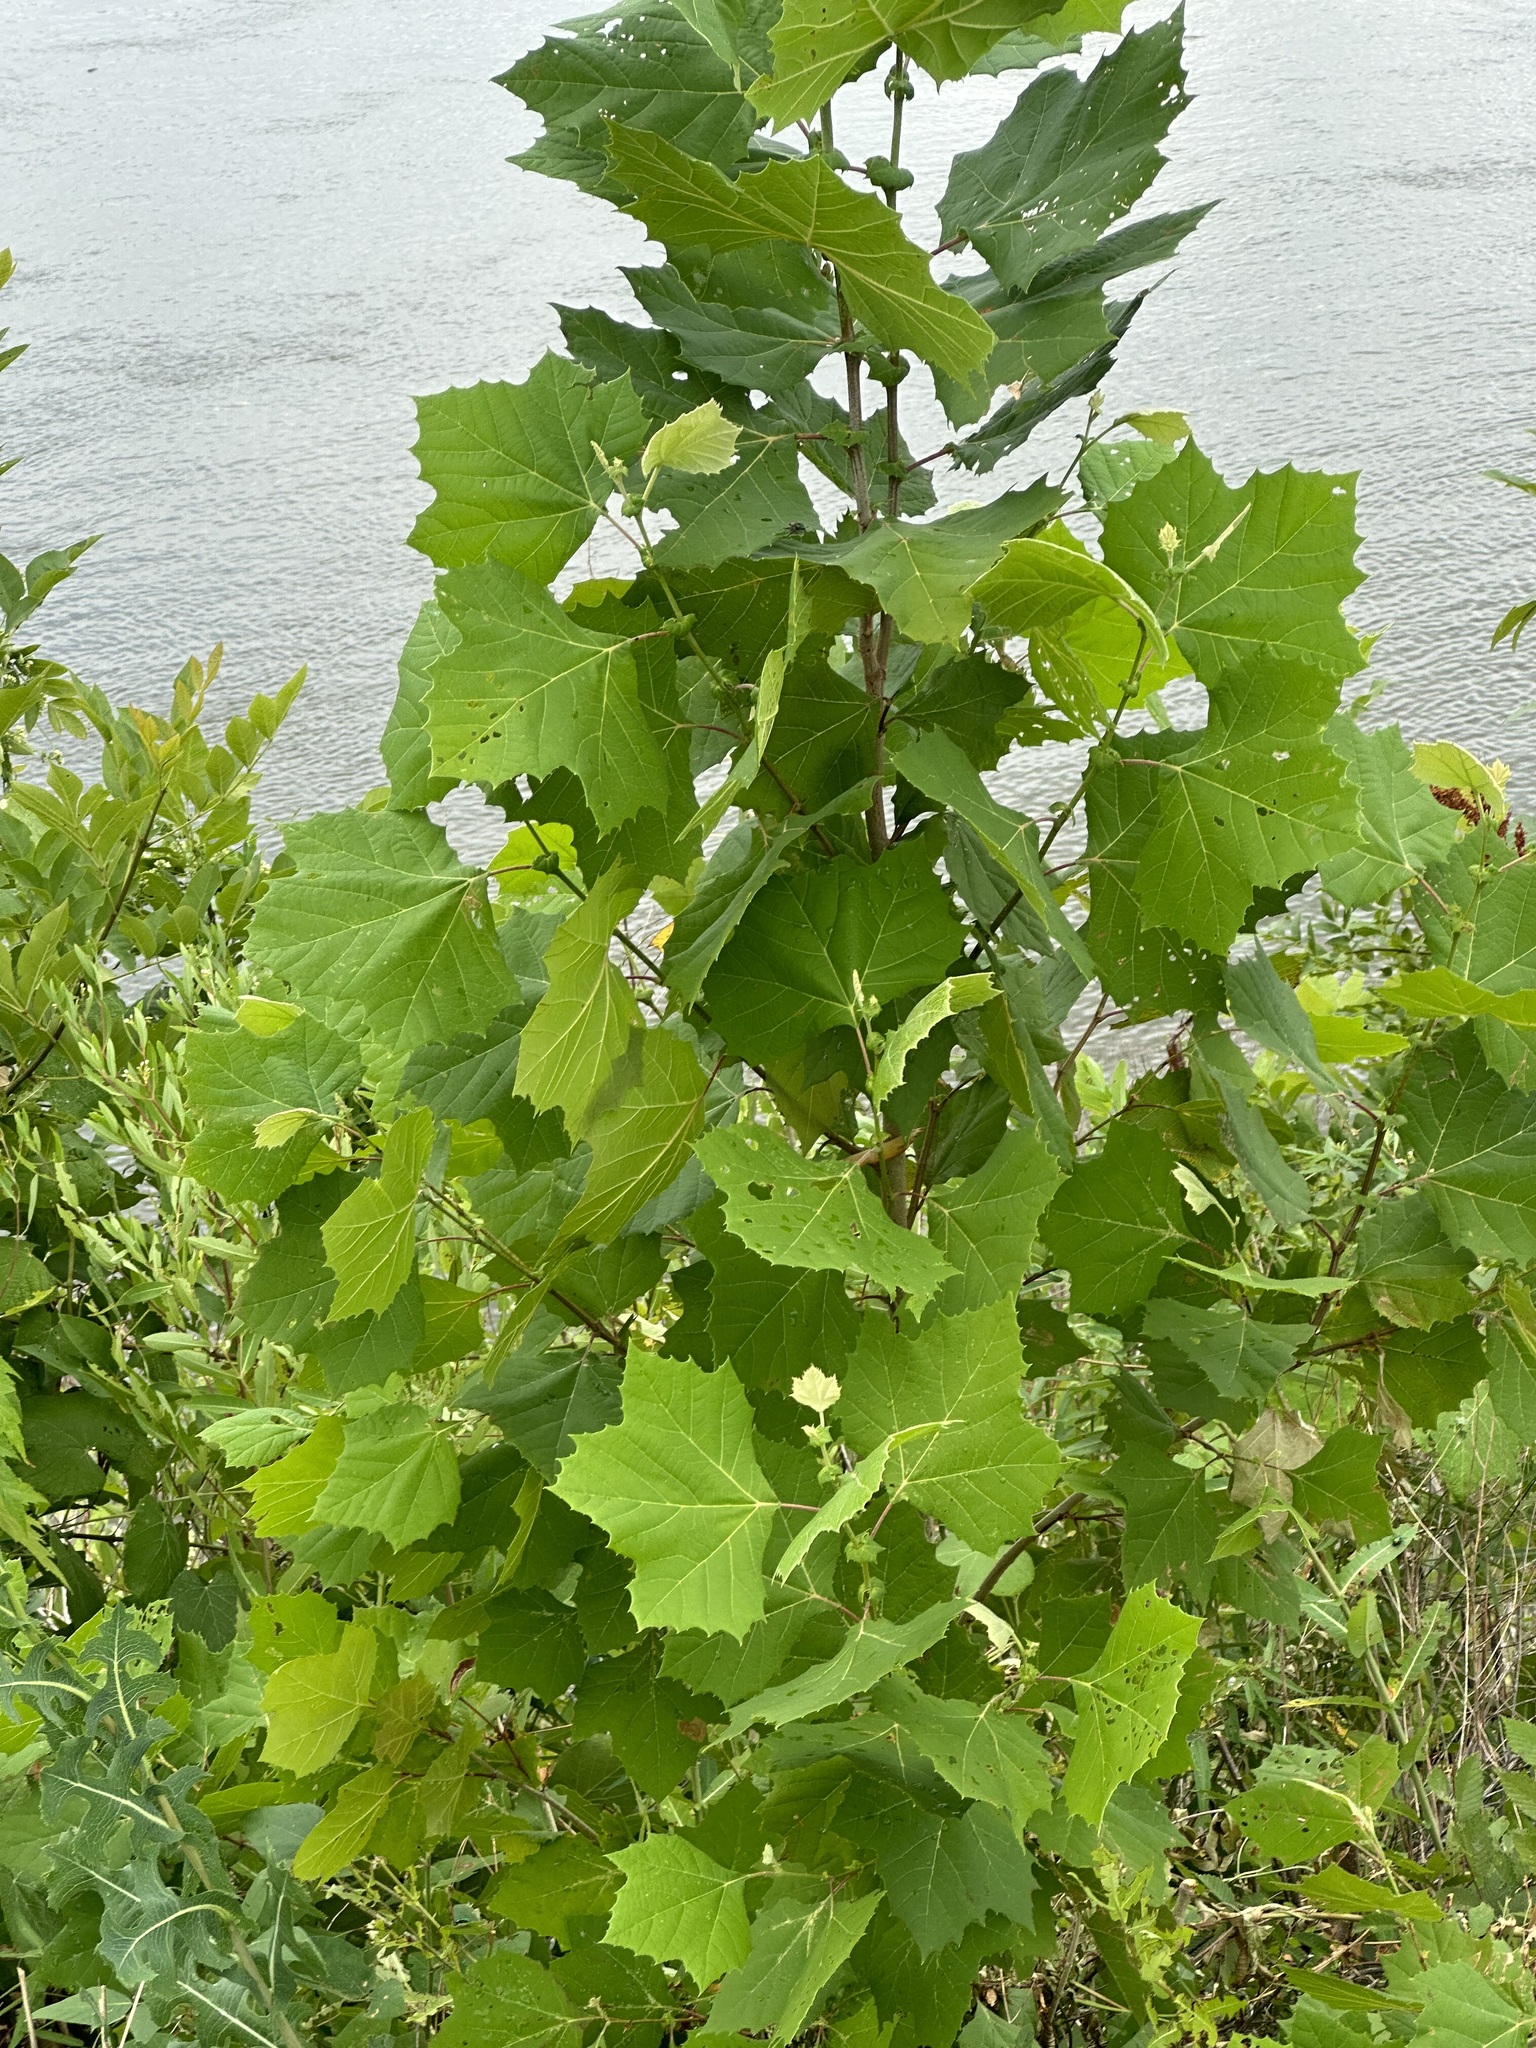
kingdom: Plantae
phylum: Tracheophyta
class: Magnoliopsida
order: Proteales
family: Platanaceae
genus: Platanus
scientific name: Platanus occidentalis
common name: American sycamore
